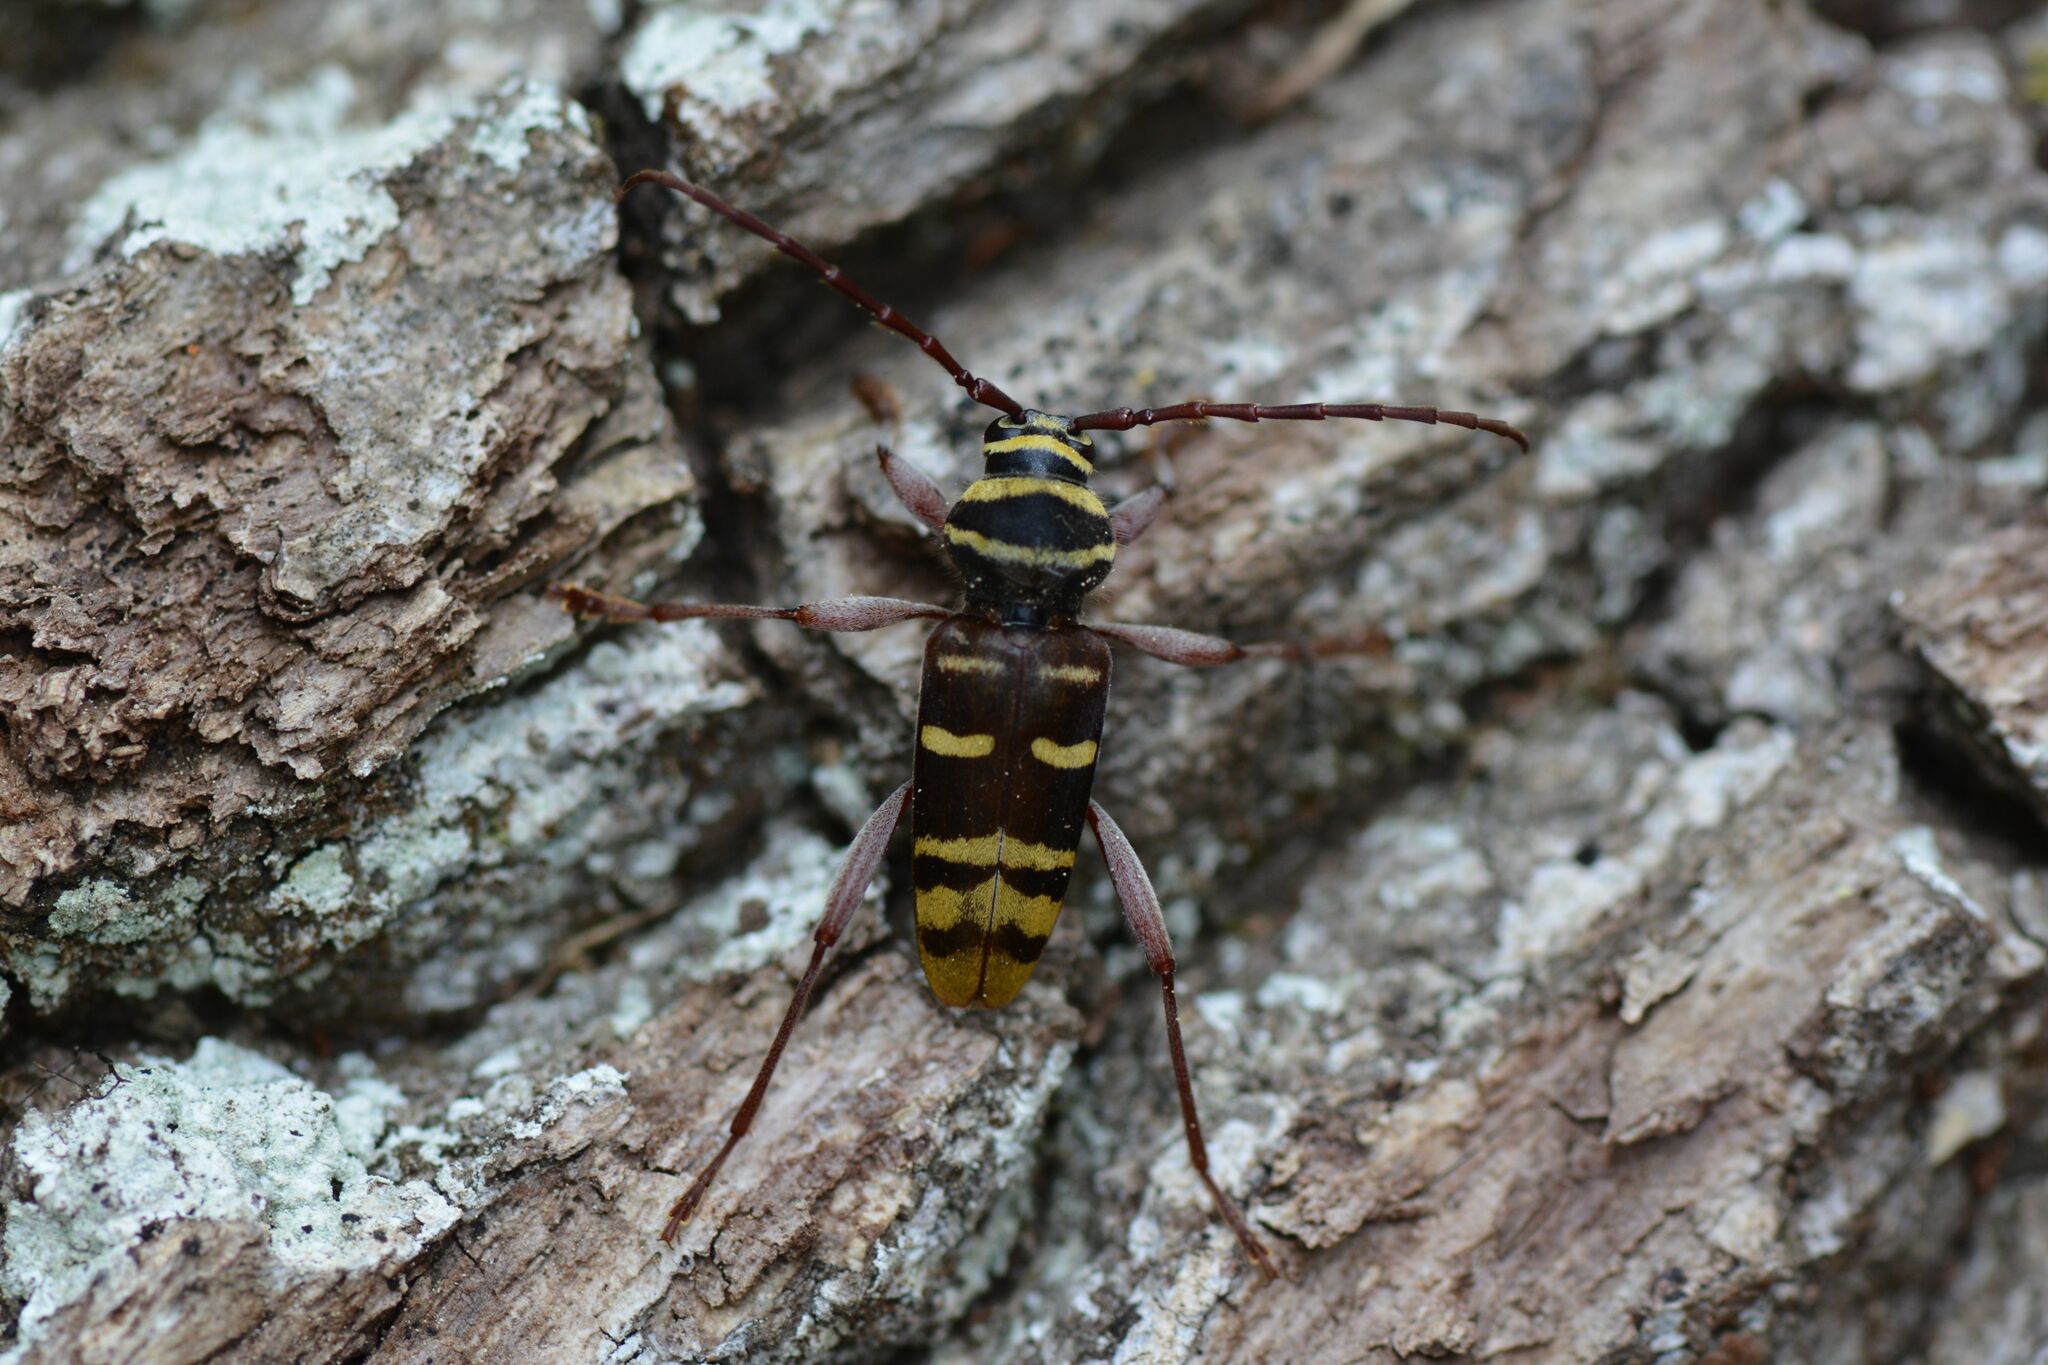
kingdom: Animalia
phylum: Arthropoda
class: Insecta
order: Coleoptera
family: Cerambycidae
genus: Plagionotus
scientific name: Plagionotus detritus
